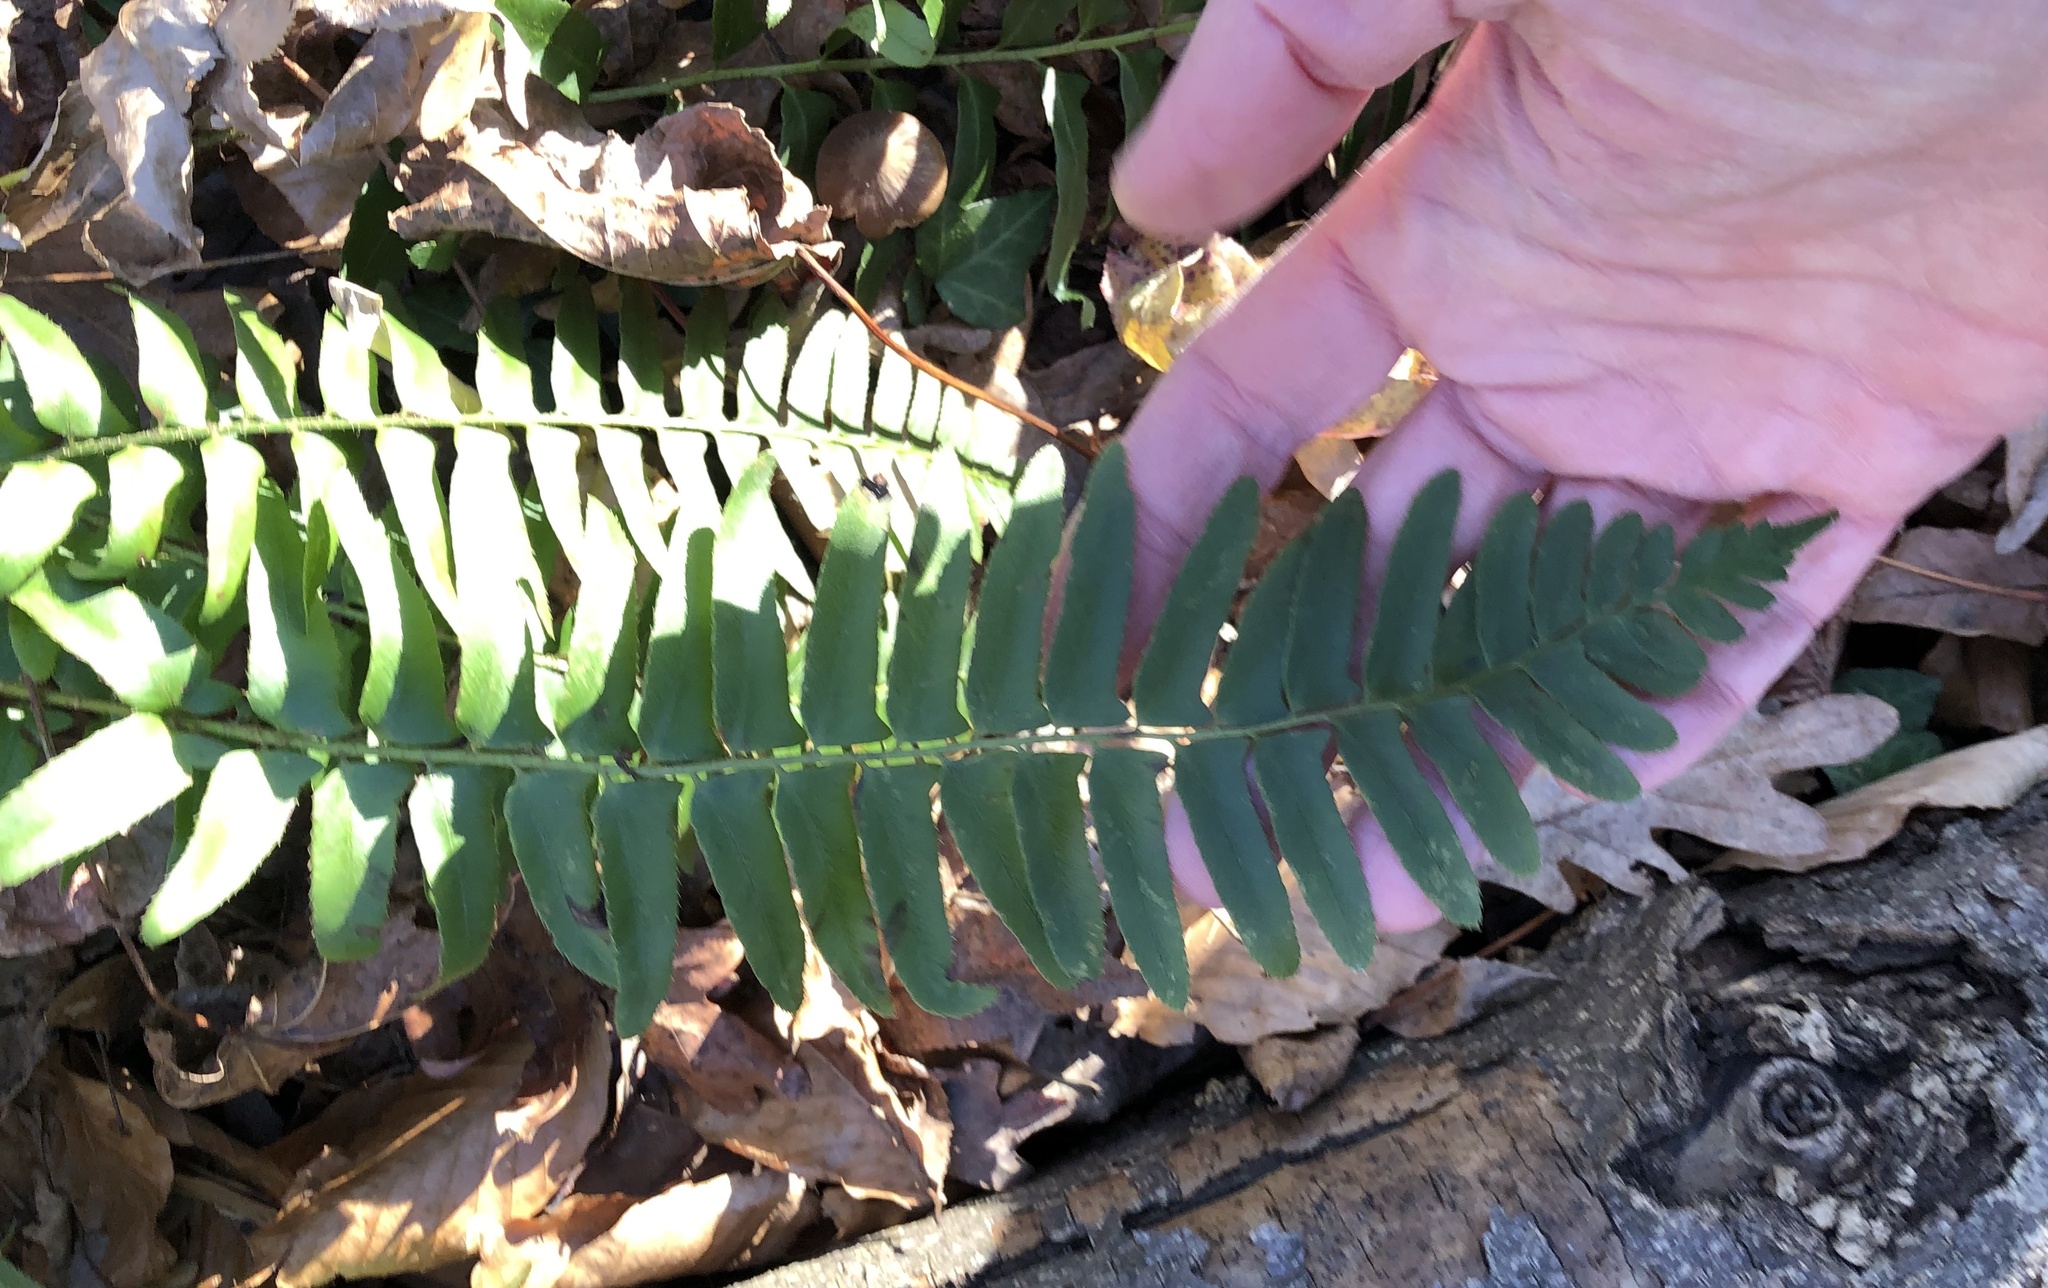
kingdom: Plantae
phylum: Tracheophyta
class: Polypodiopsida
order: Polypodiales
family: Dryopteridaceae
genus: Polystichum
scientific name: Polystichum acrostichoides
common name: Christmas fern
